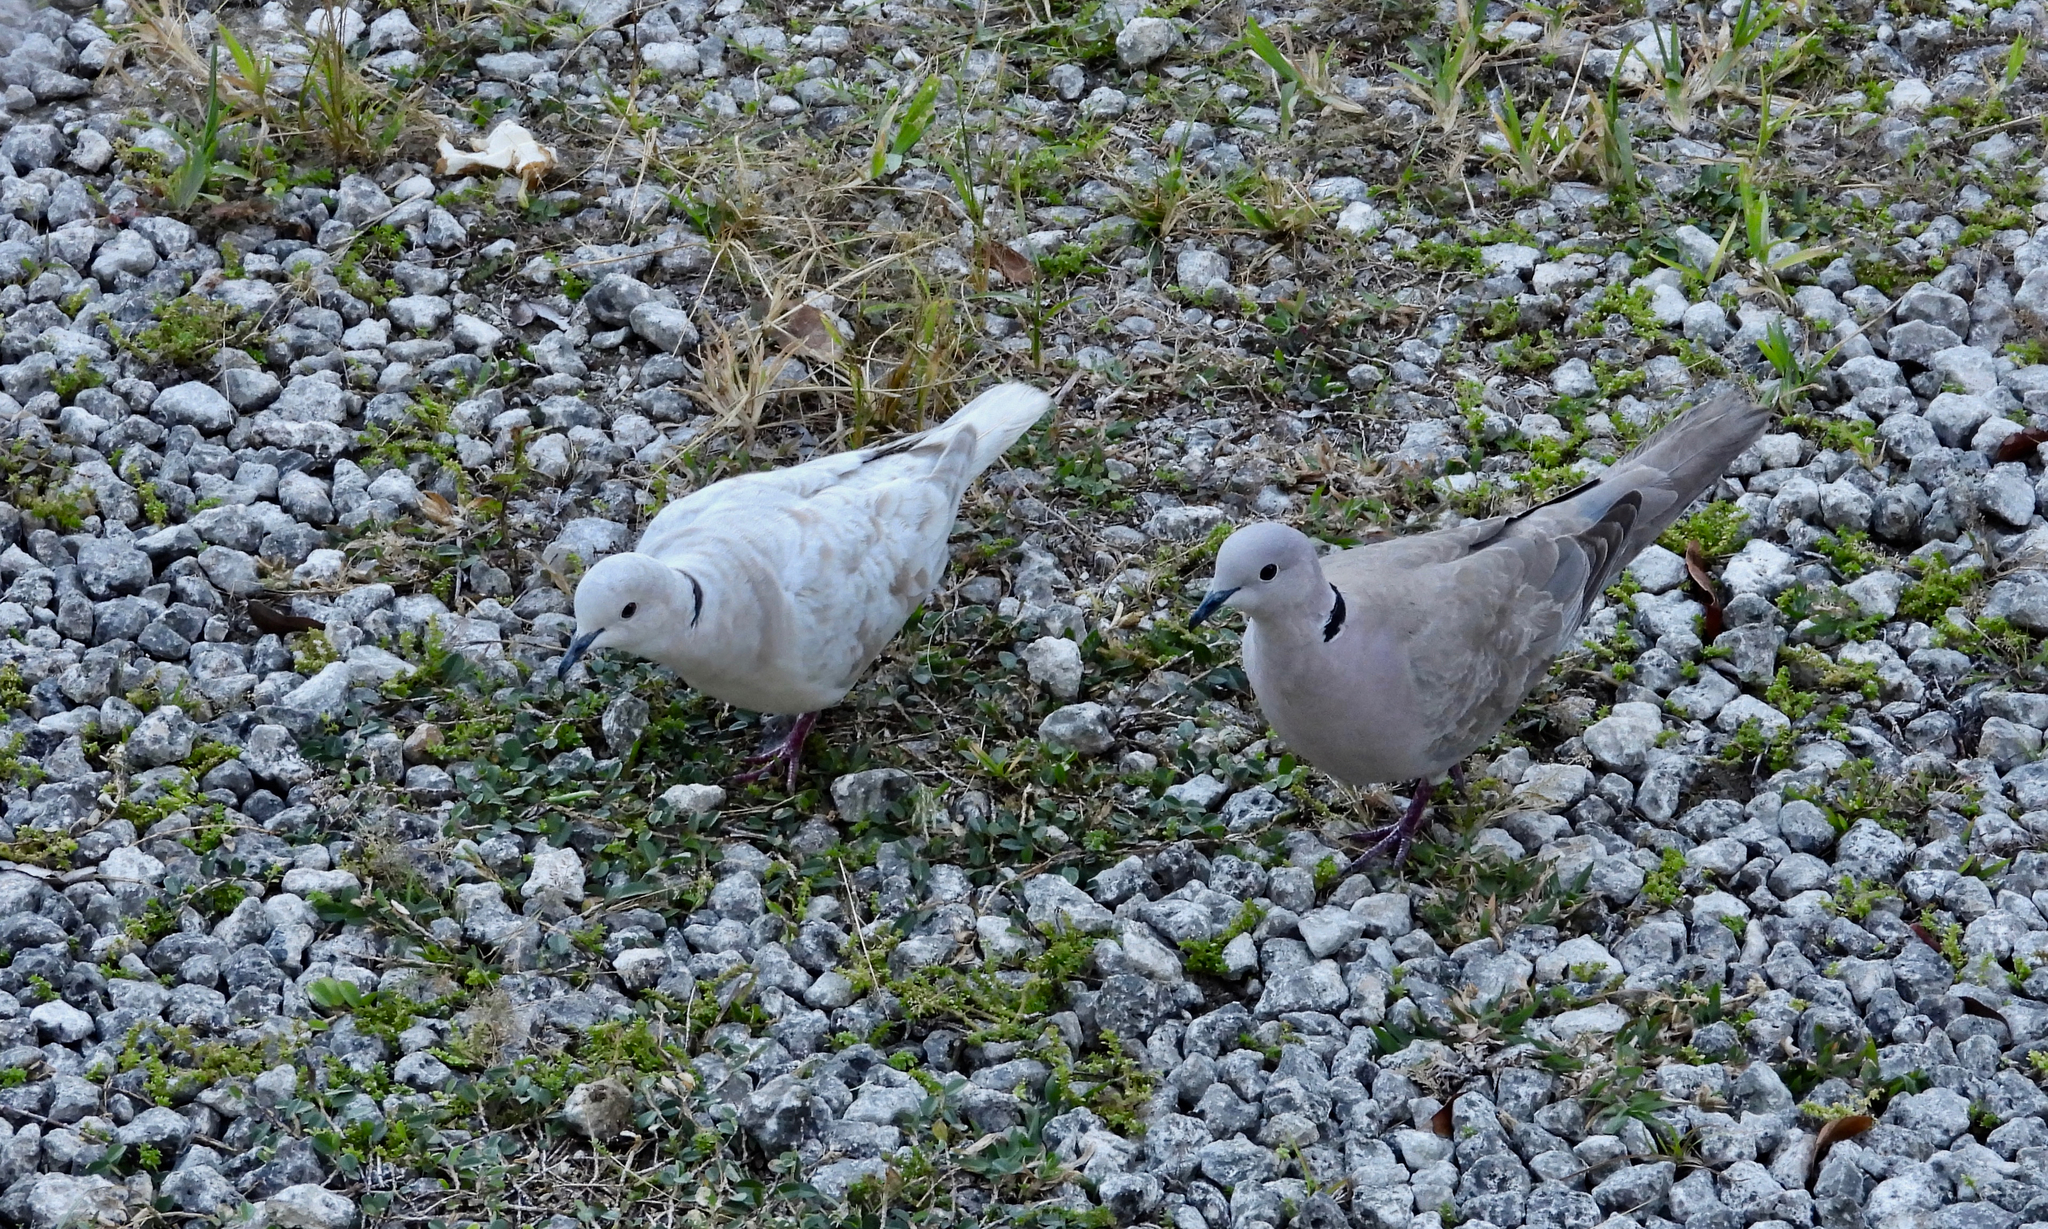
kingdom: Animalia
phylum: Chordata
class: Aves
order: Columbiformes
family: Columbidae
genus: Streptopelia
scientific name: Streptopelia decaocto
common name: Eurasian collared dove
